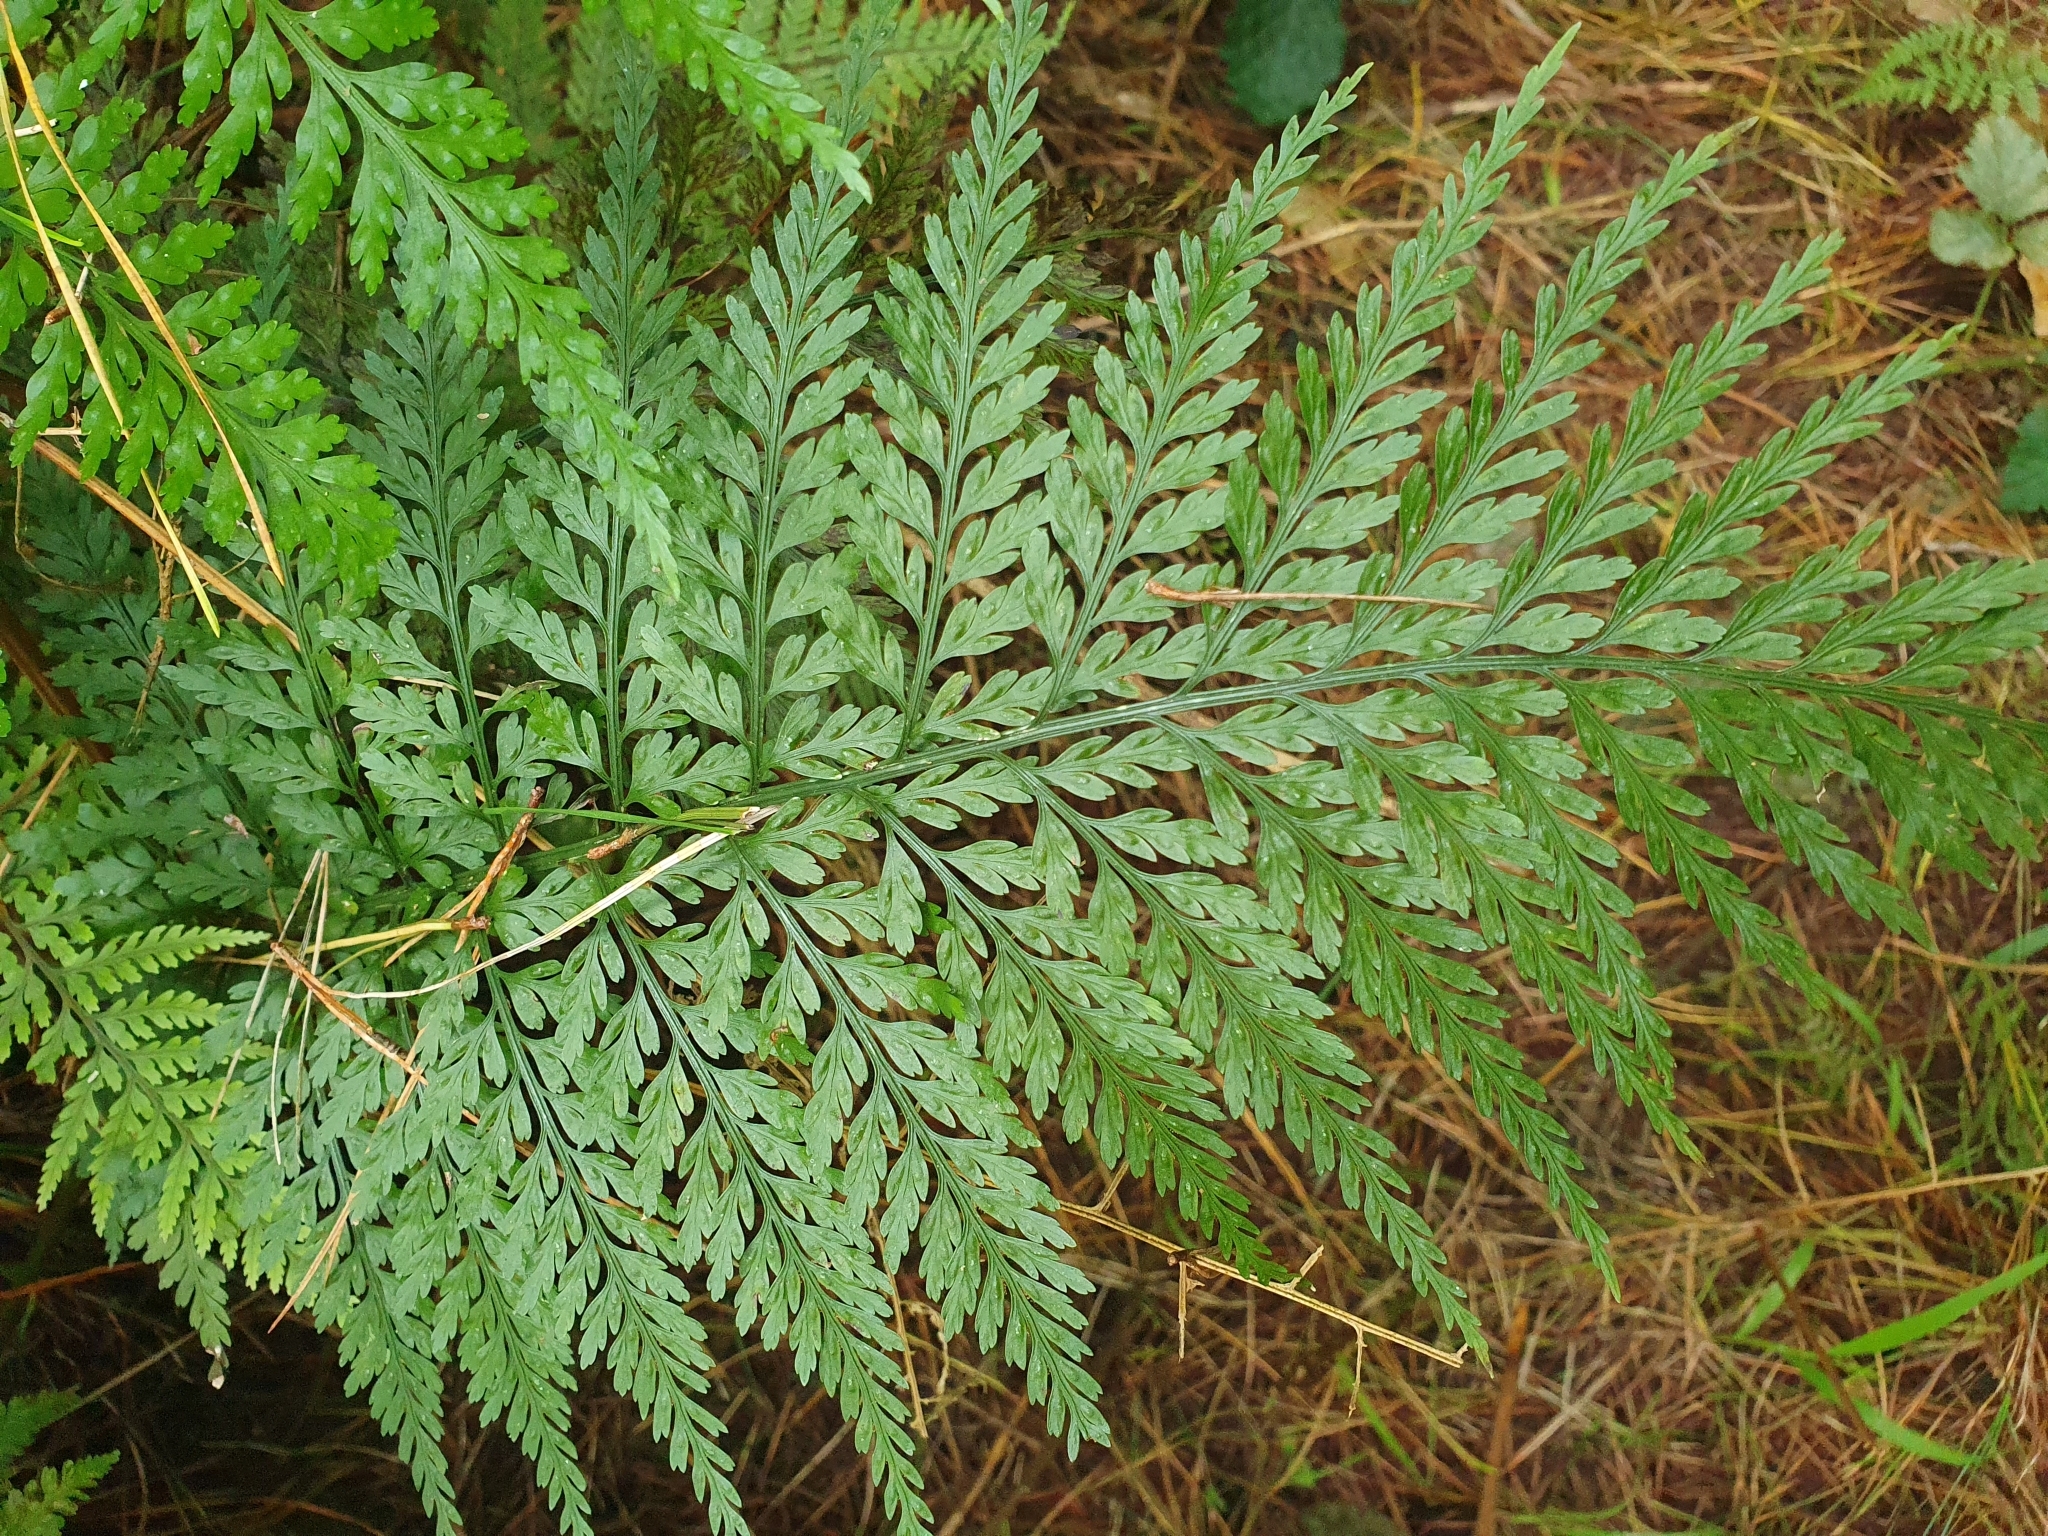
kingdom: Plantae
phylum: Tracheophyta
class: Polypodiopsida
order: Polypodiales
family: Aspleniaceae
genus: Asplenium
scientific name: Asplenium
